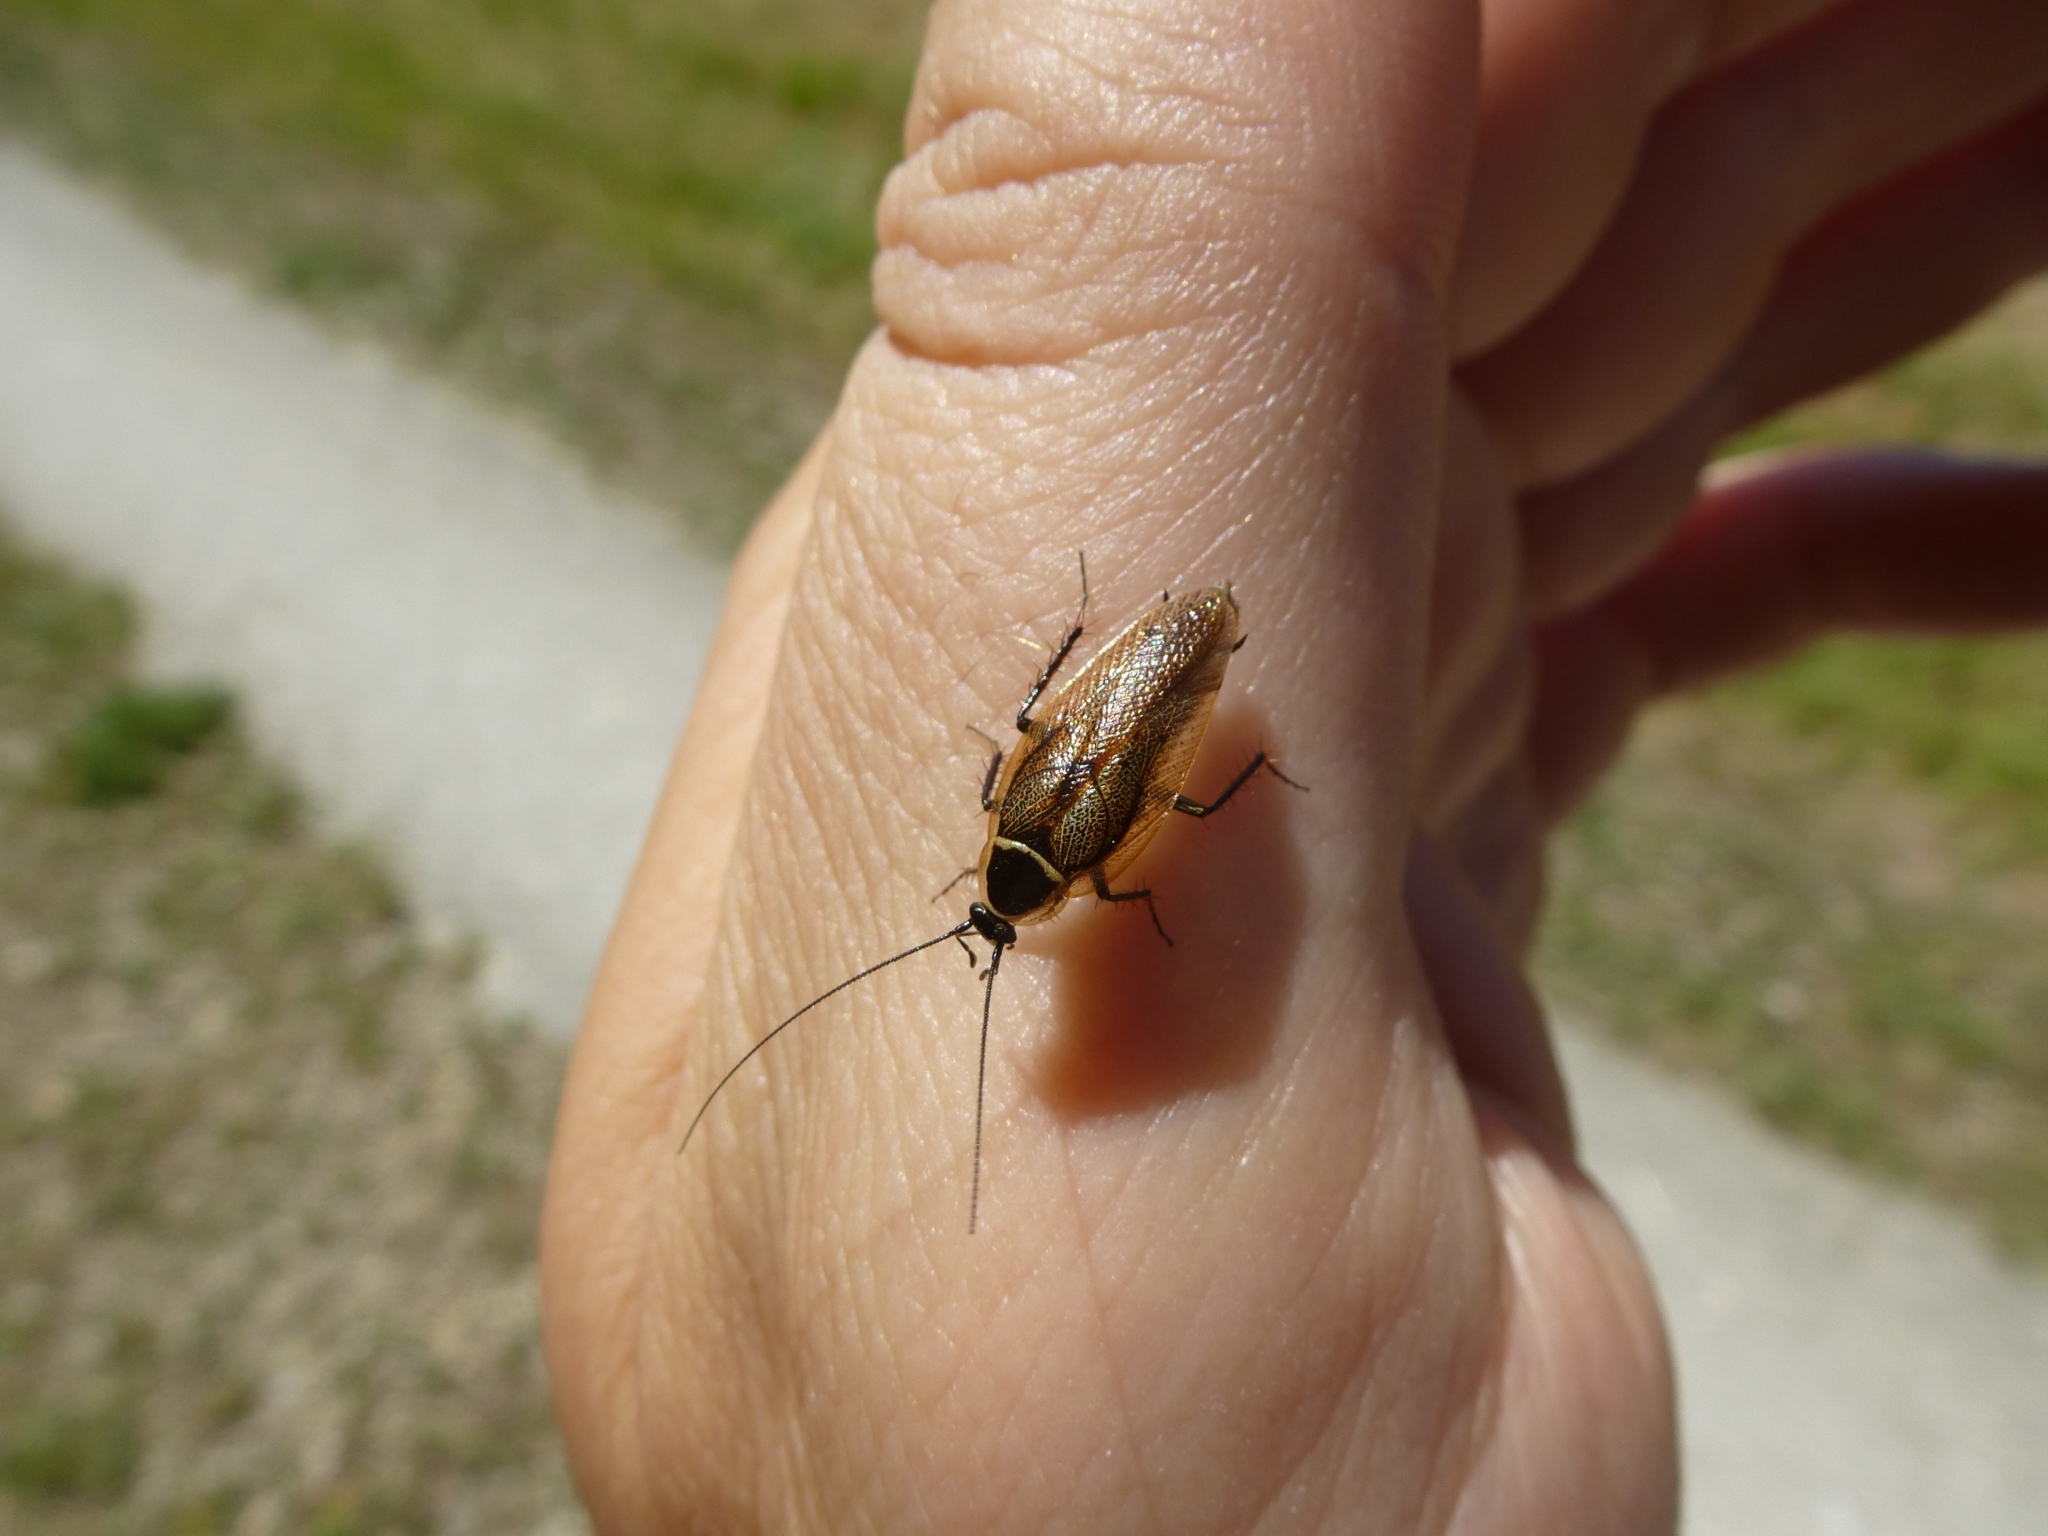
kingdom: Animalia
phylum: Arthropoda
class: Insecta
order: Blattodea
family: Ectobiidae
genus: Ectobius
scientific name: Ectobius lapponicus
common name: Dusky cockroach
